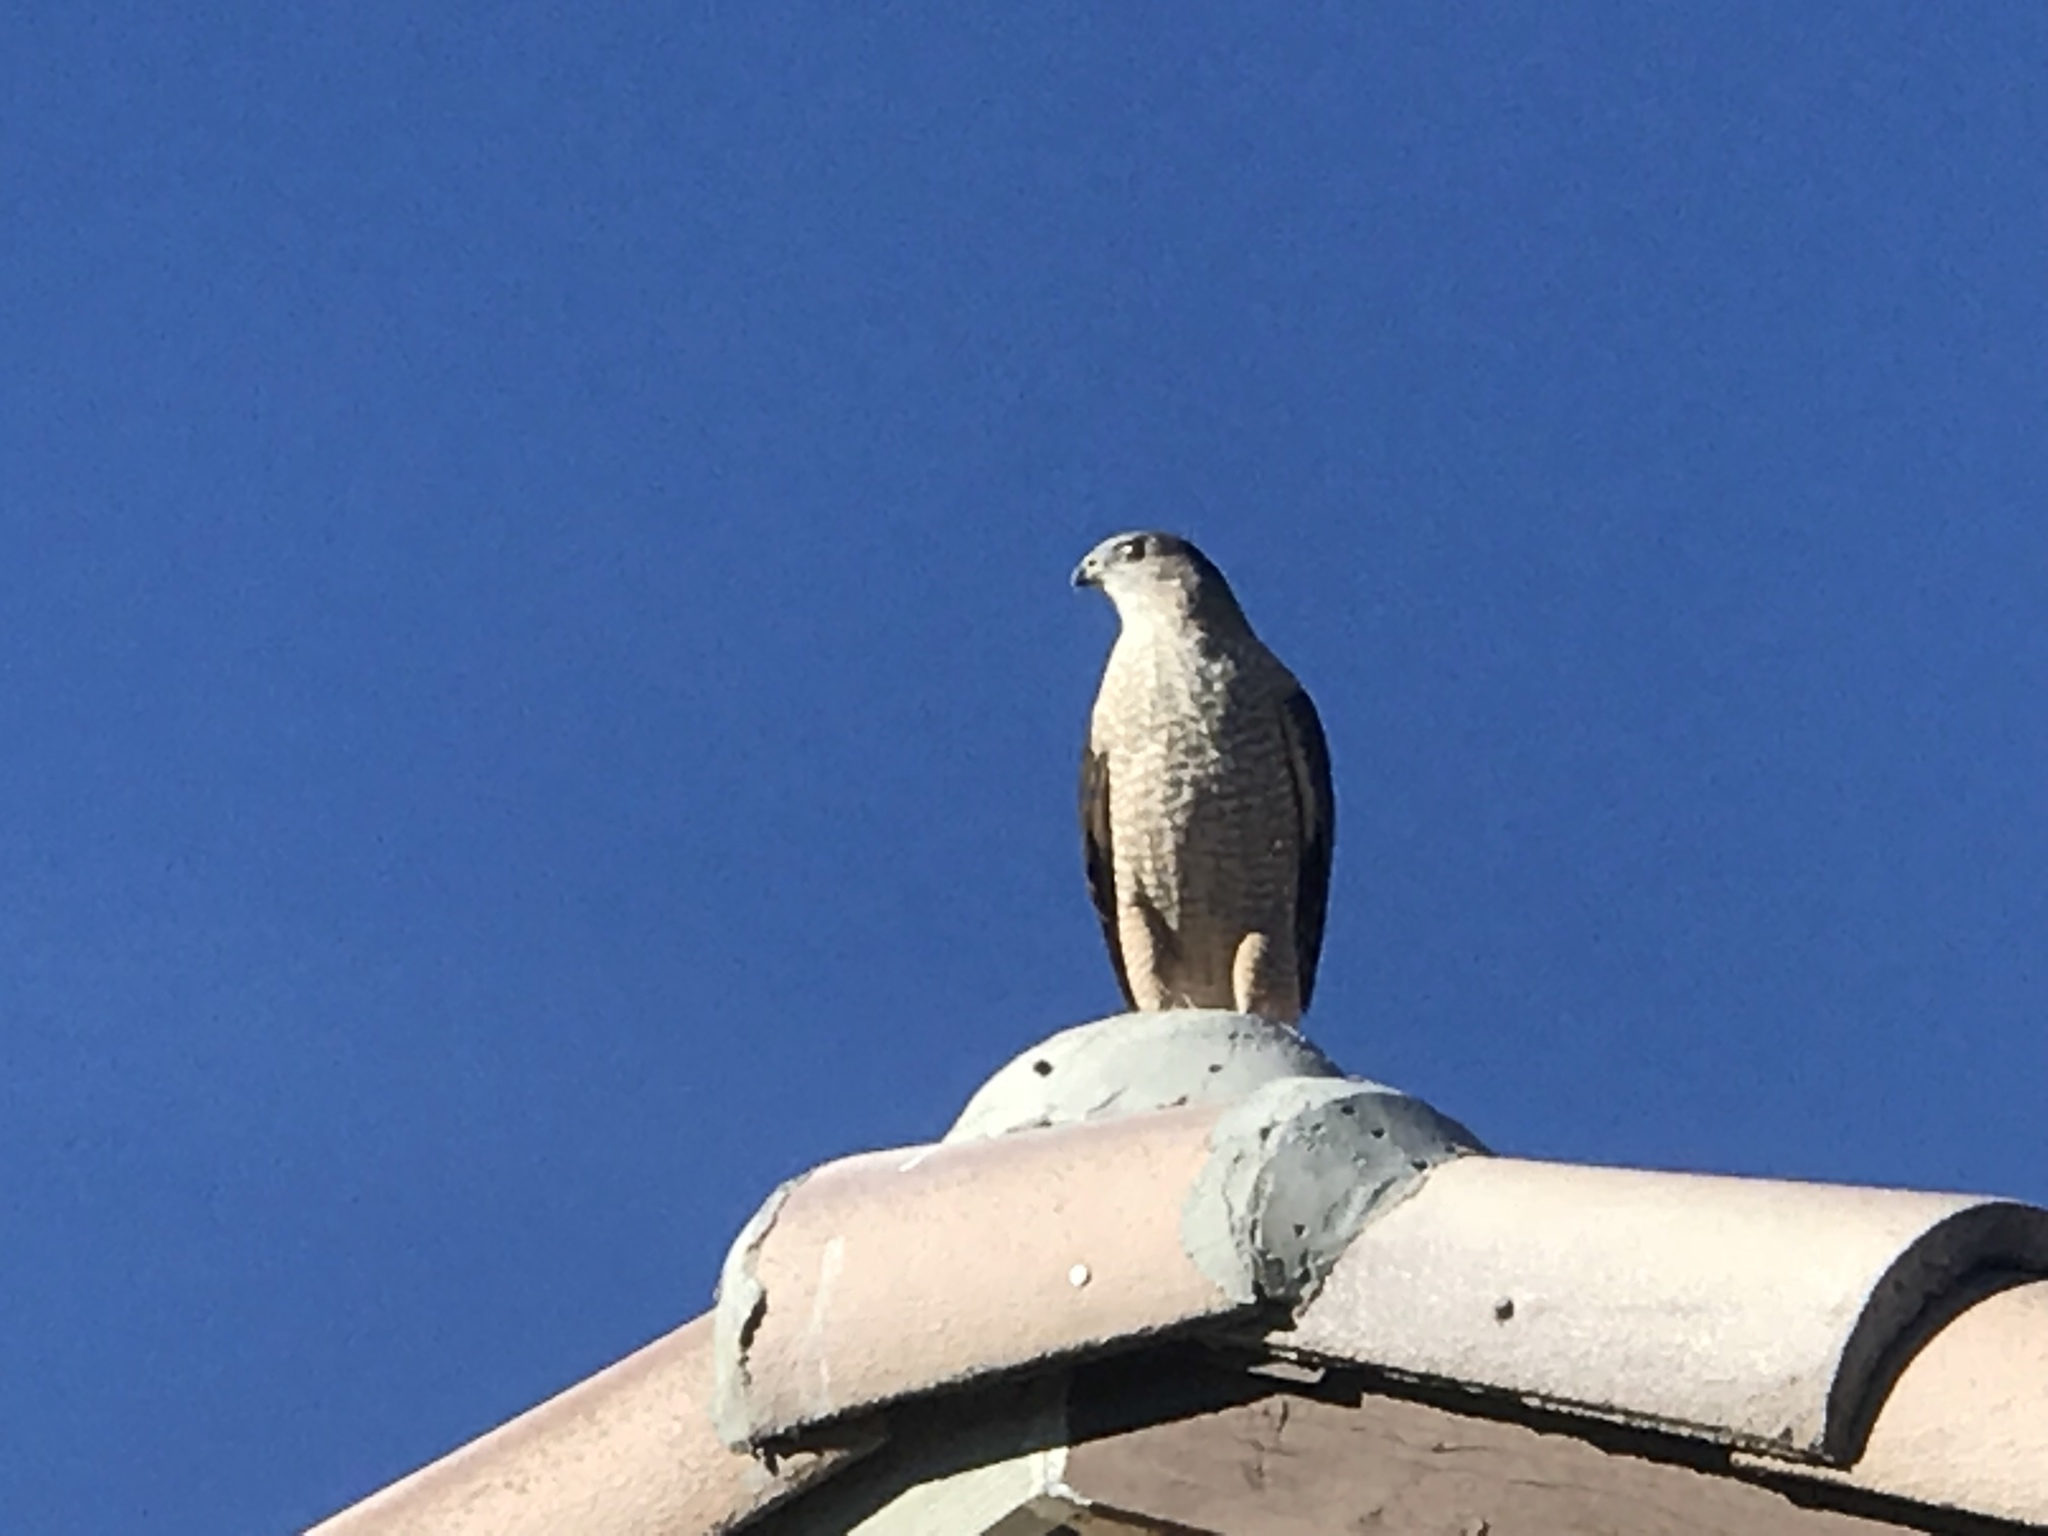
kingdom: Animalia
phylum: Chordata
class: Aves
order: Accipitriformes
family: Accipitridae
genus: Accipiter
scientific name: Accipiter cooperii
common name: Cooper's hawk
